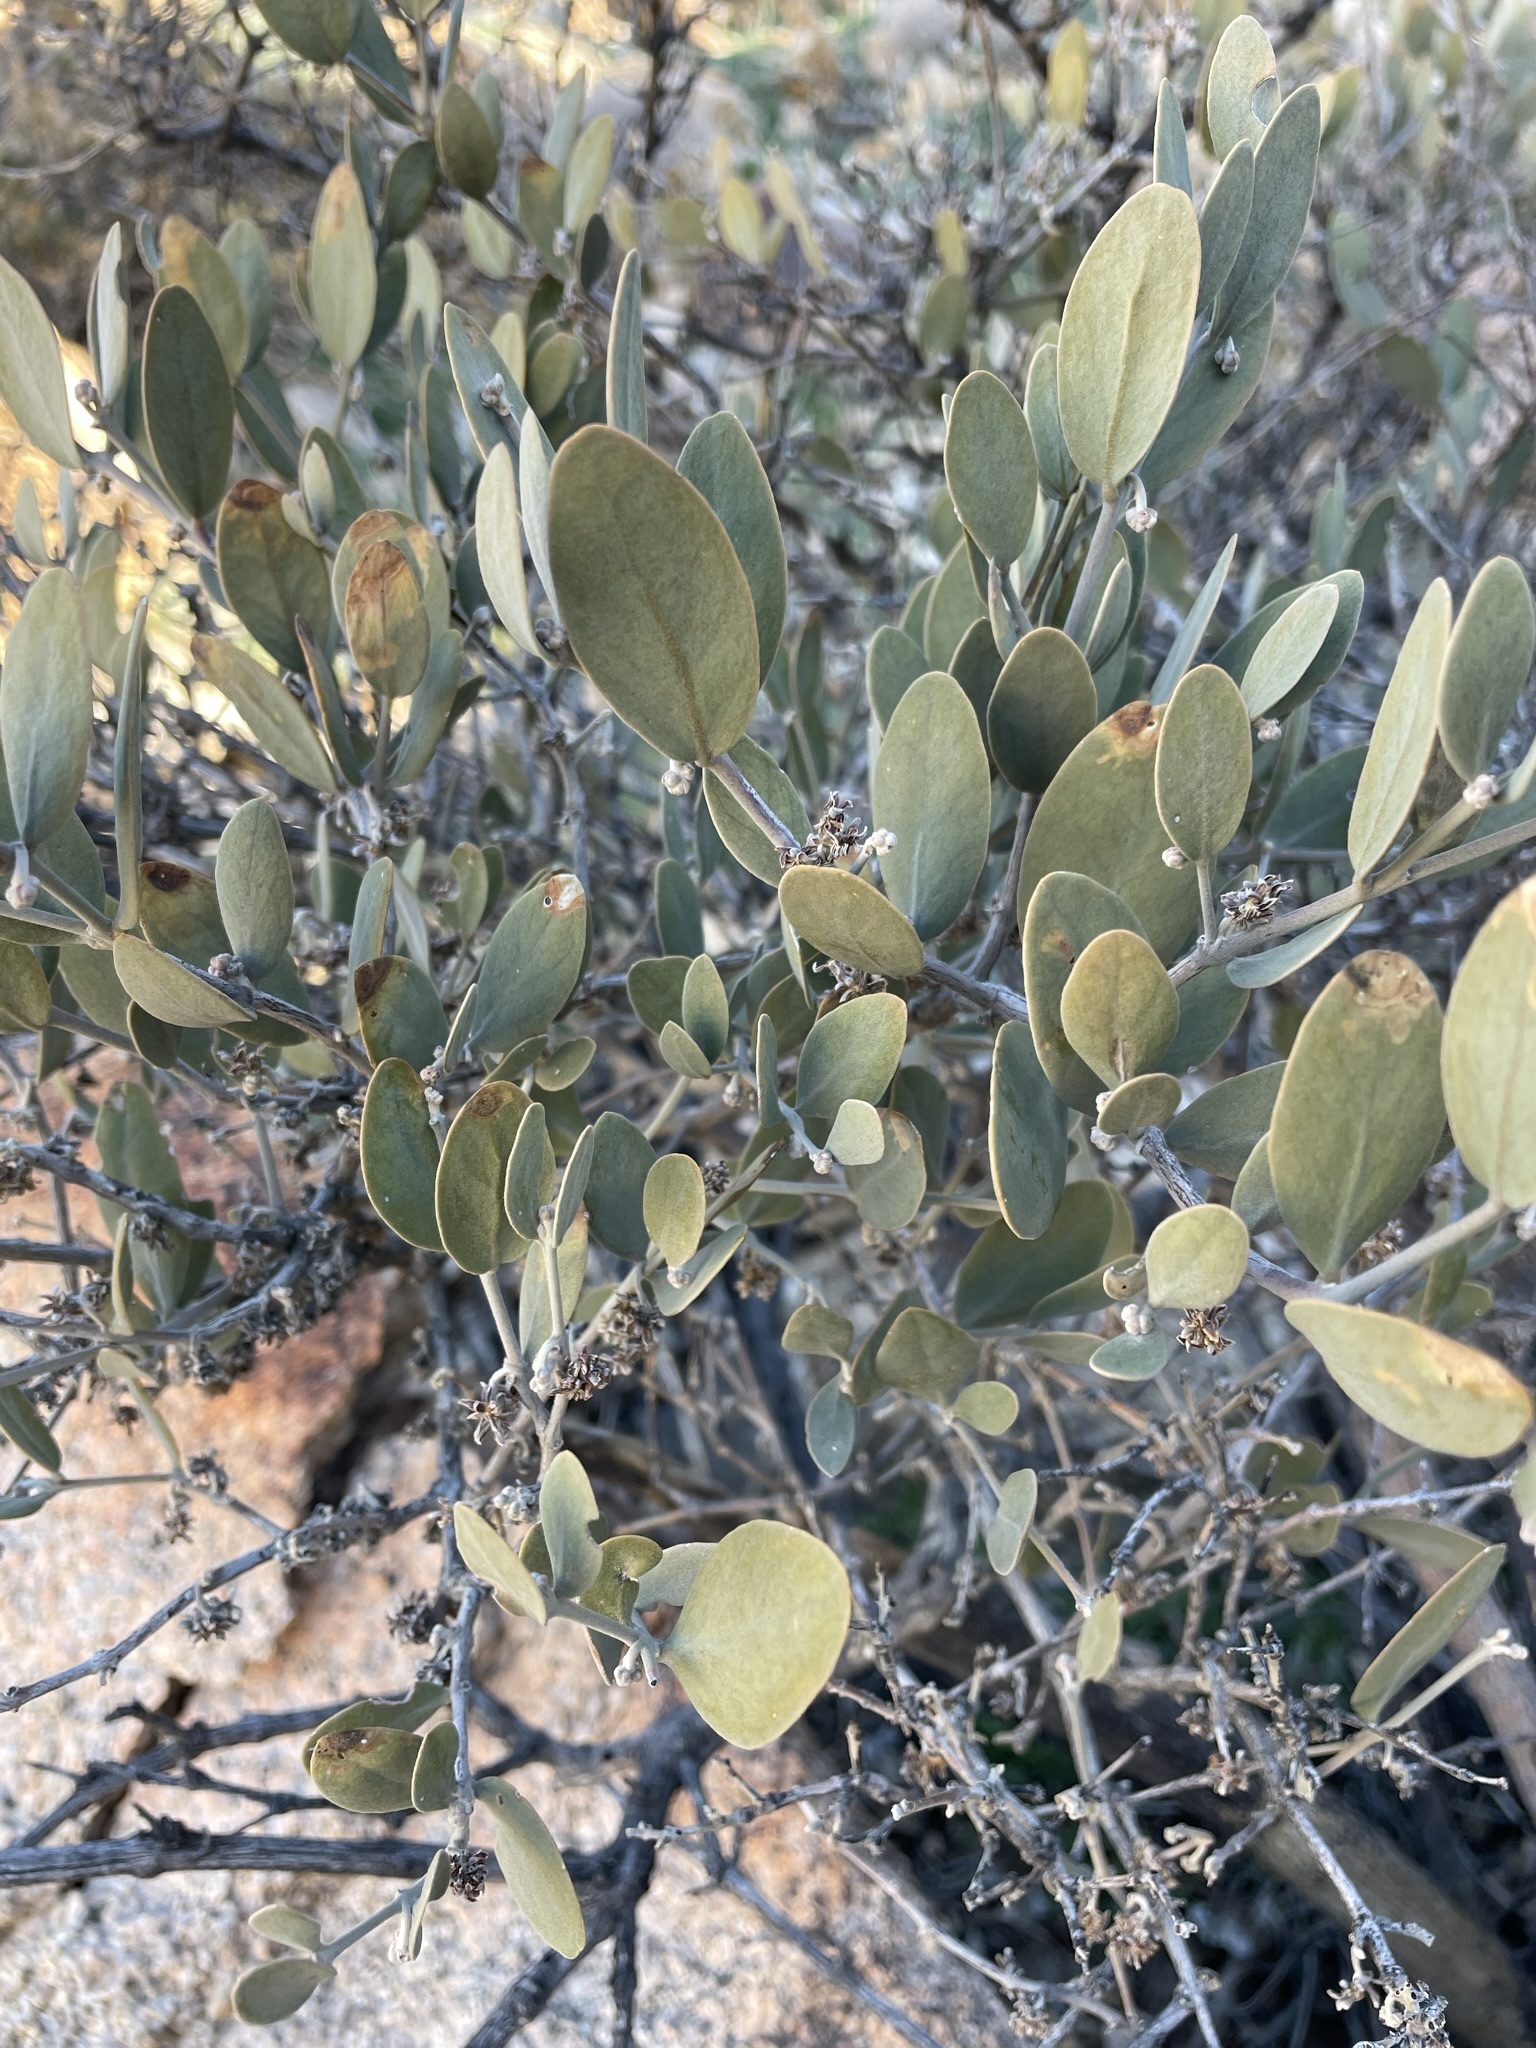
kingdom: Plantae
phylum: Tracheophyta
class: Magnoliopsida
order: Caryophyllales
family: Simmondsiaceae
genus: Simmondsia
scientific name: Simmondsia chinensis
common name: Jojoba
